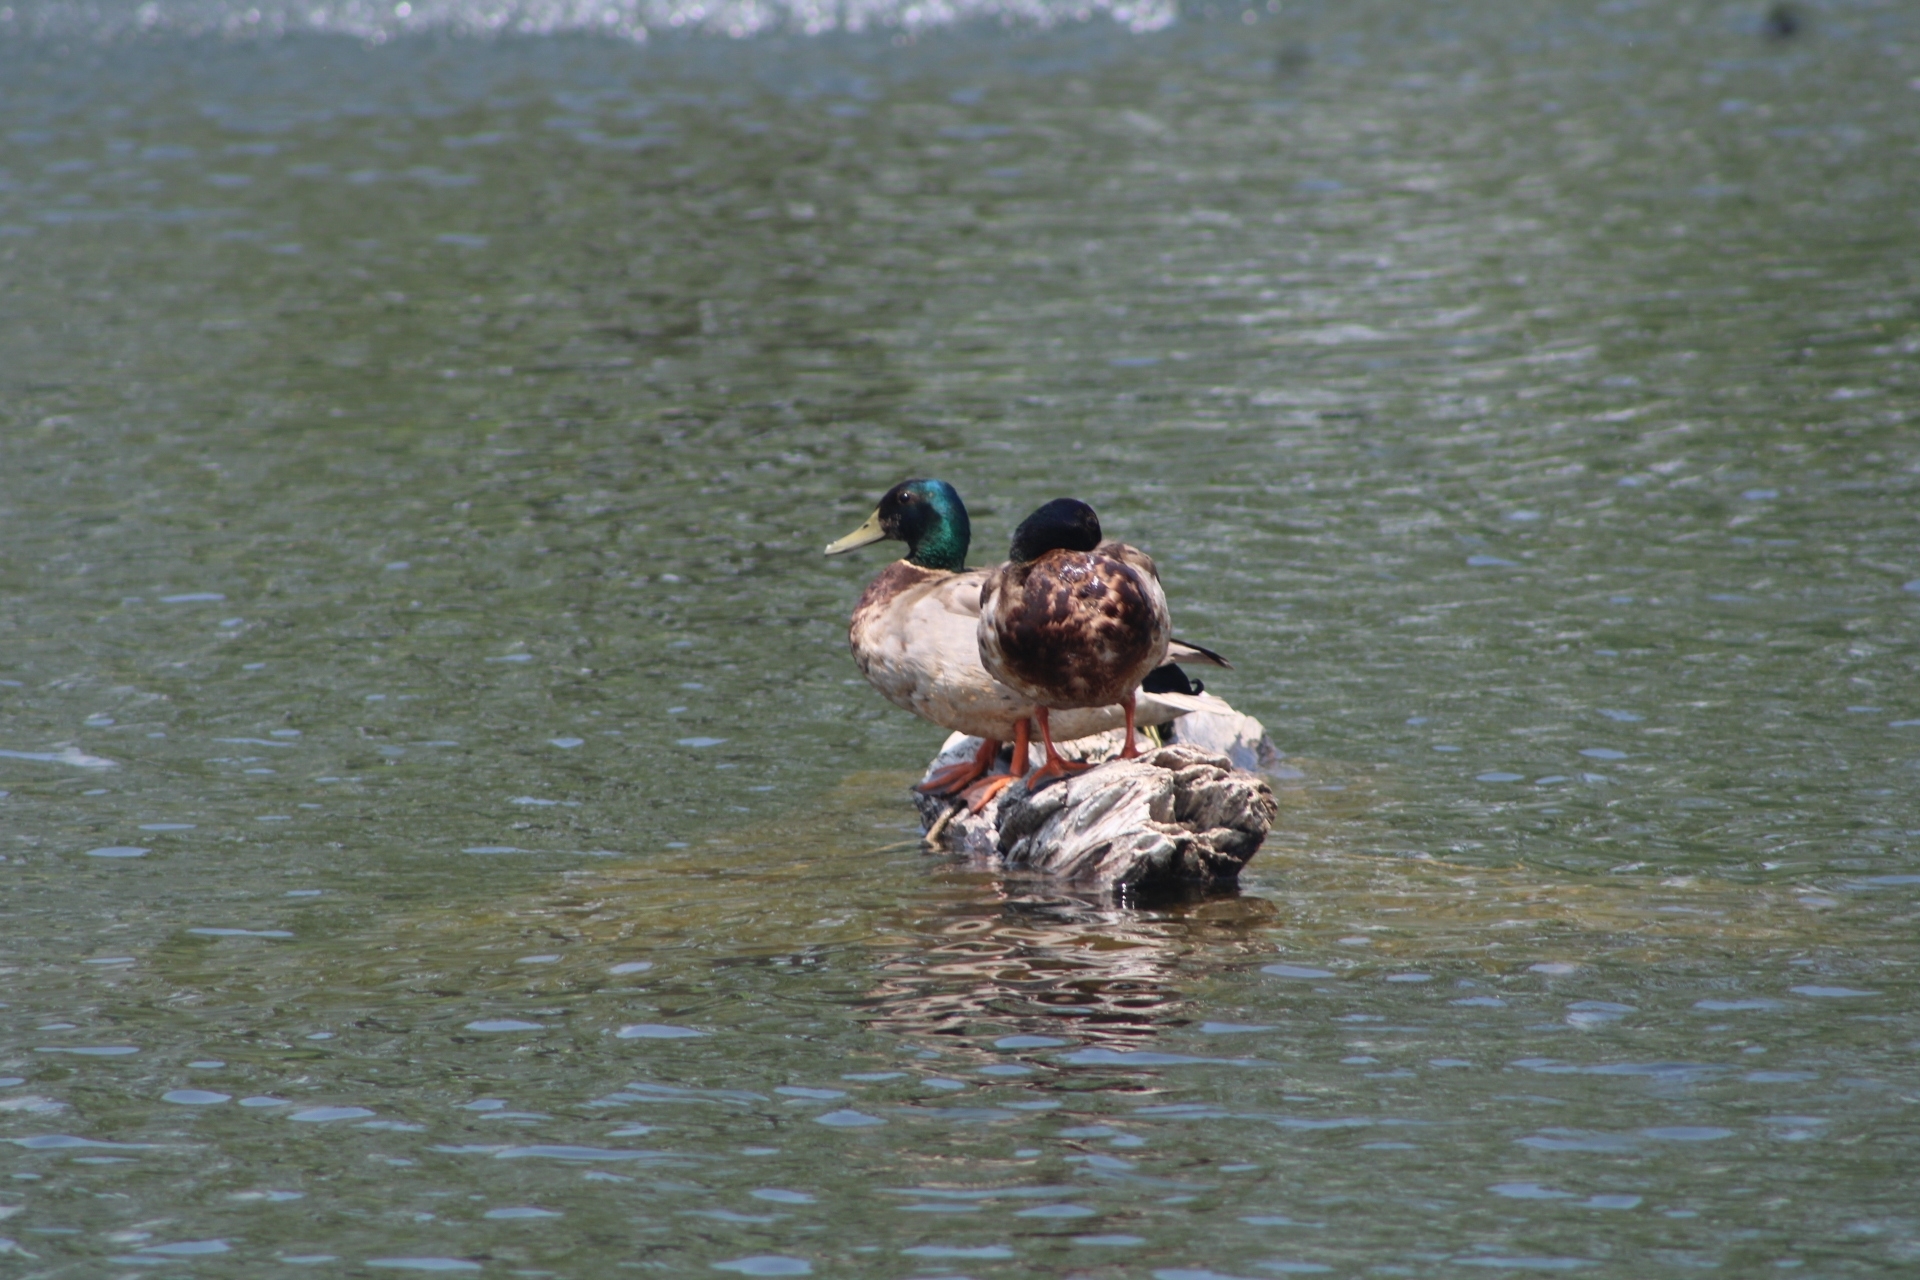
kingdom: Animalia
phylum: Chordata
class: Aves
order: Anseriformes
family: Anatidae
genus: Anas
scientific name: Anas platyrhynchos
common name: Mallard
